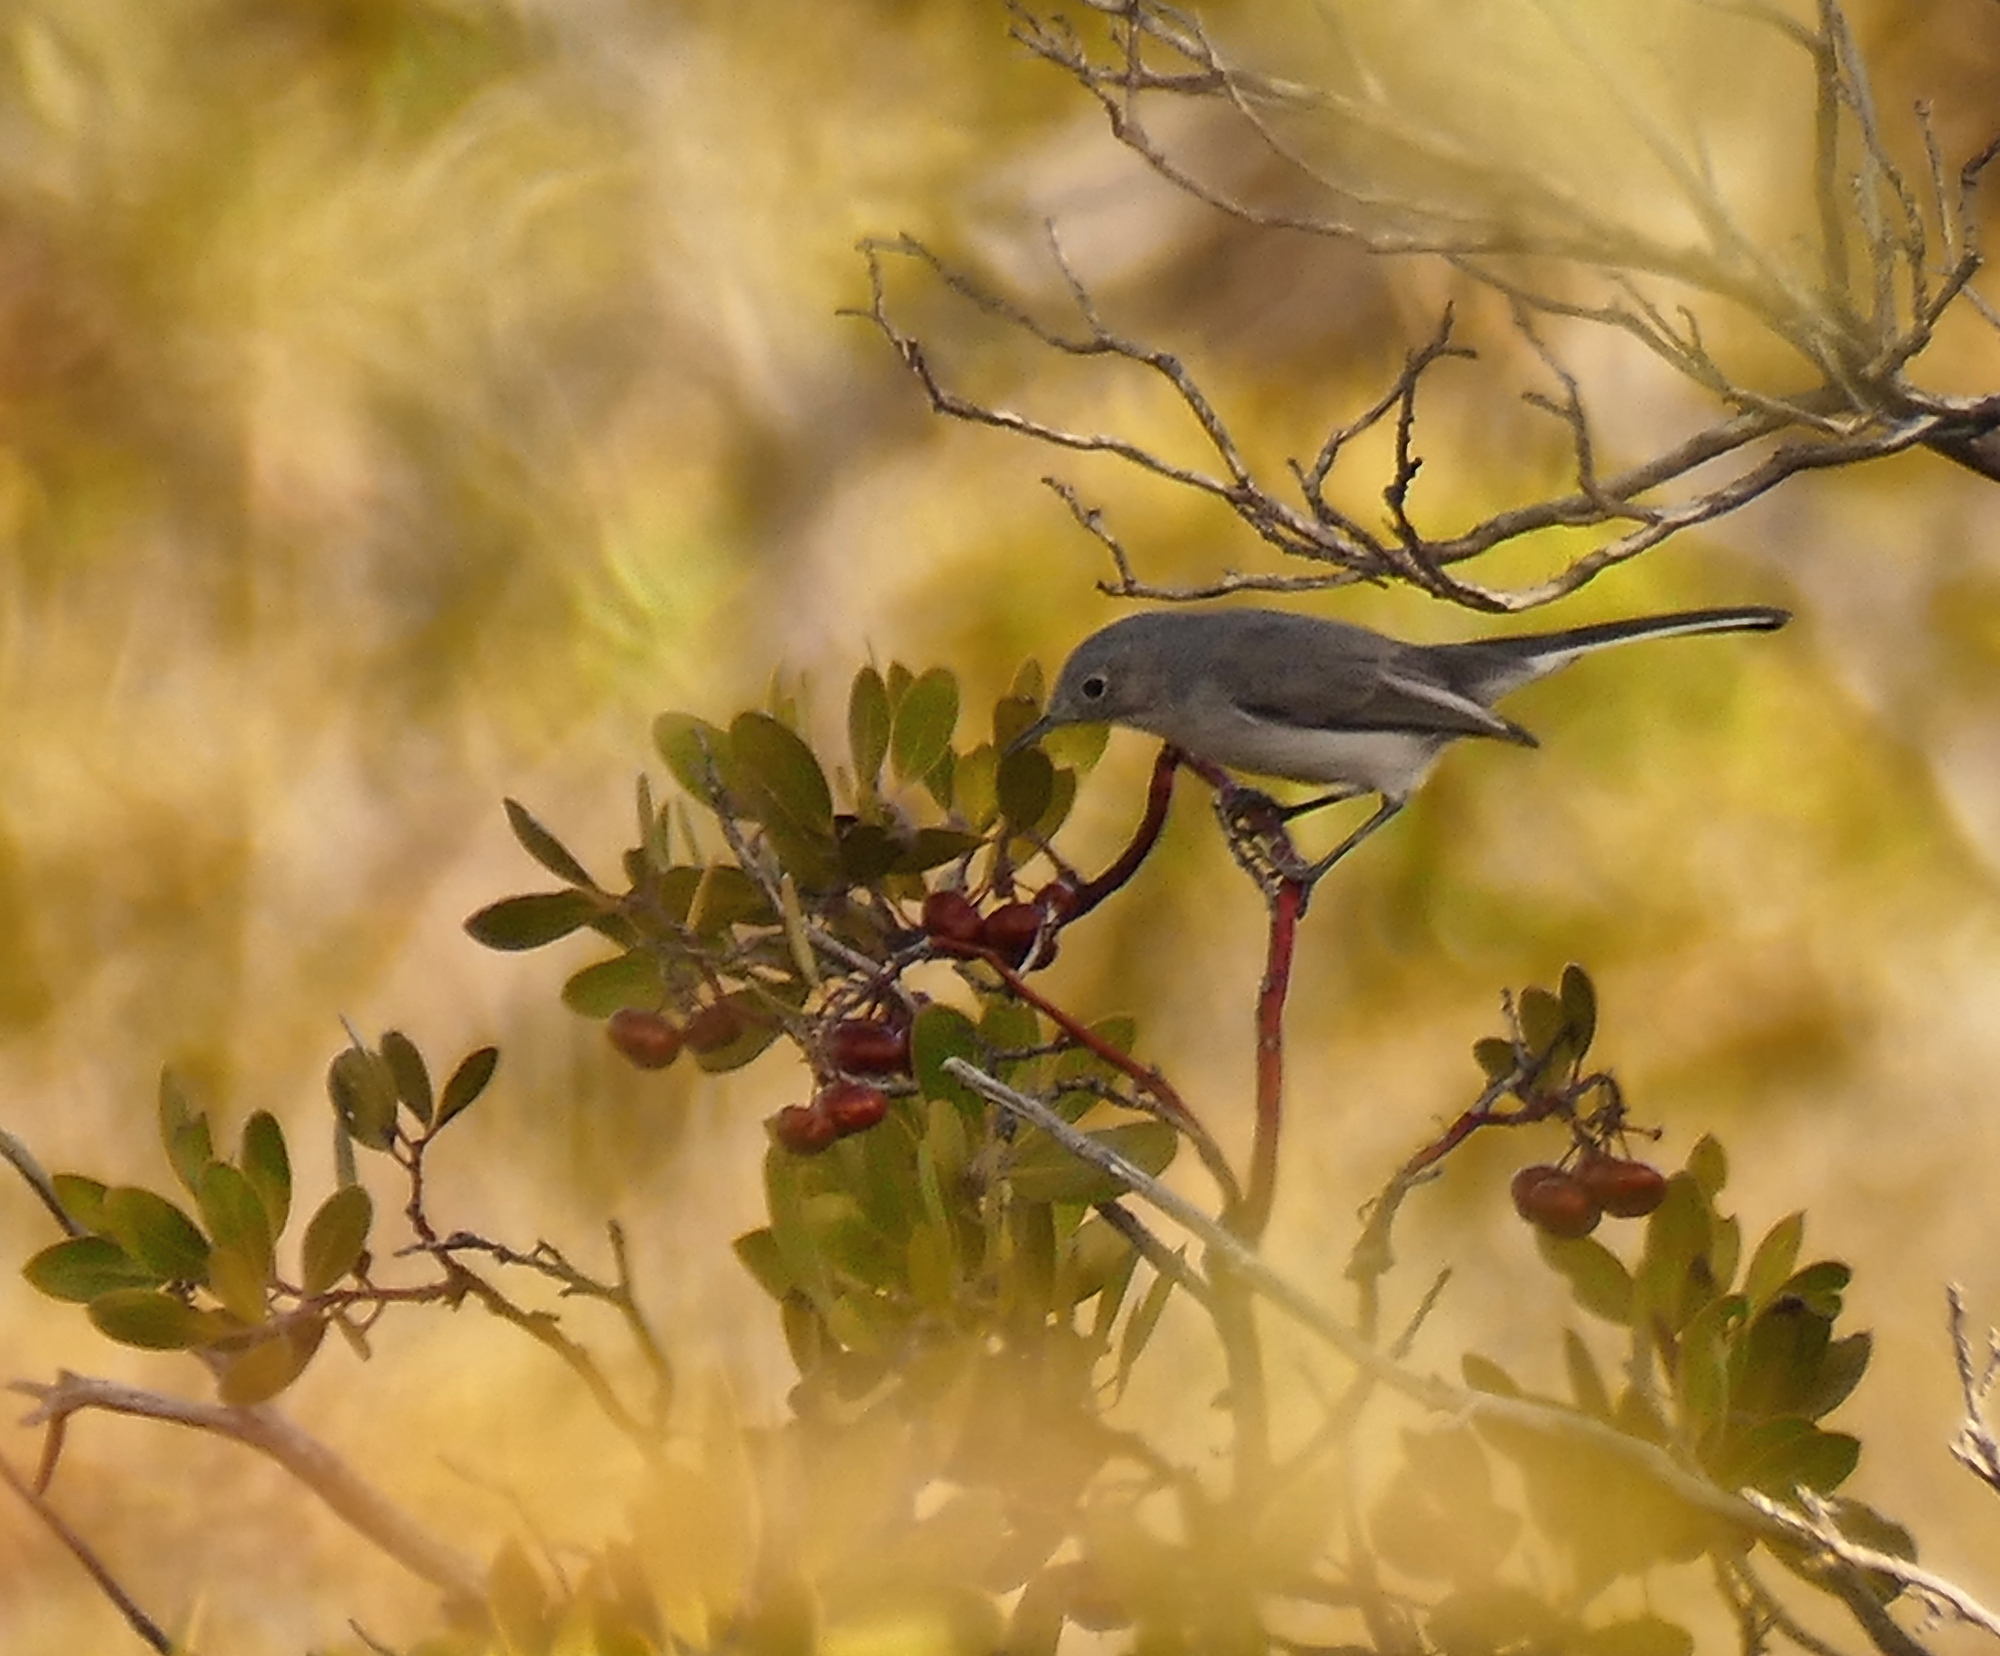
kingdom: Animalia
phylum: Chordata
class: Aves
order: Passeriformes
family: Polioptilidae
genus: Polioptila
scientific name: Polioptila caerulea
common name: Blue-gray gnatcatcher
